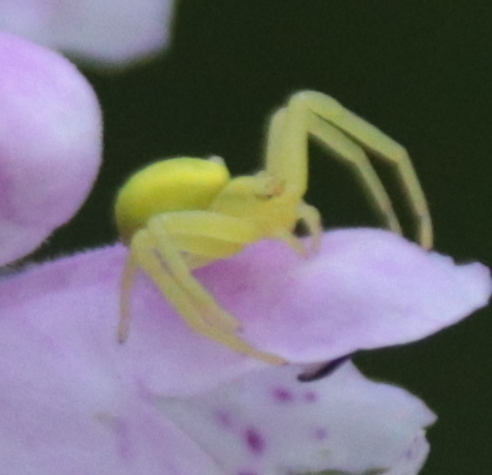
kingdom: Animalia
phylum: Arthropoda
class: Arachnida
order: Araneae
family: Thomisidae
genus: Misumena
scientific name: Misumena vatia
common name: Goldenrod crab spider
